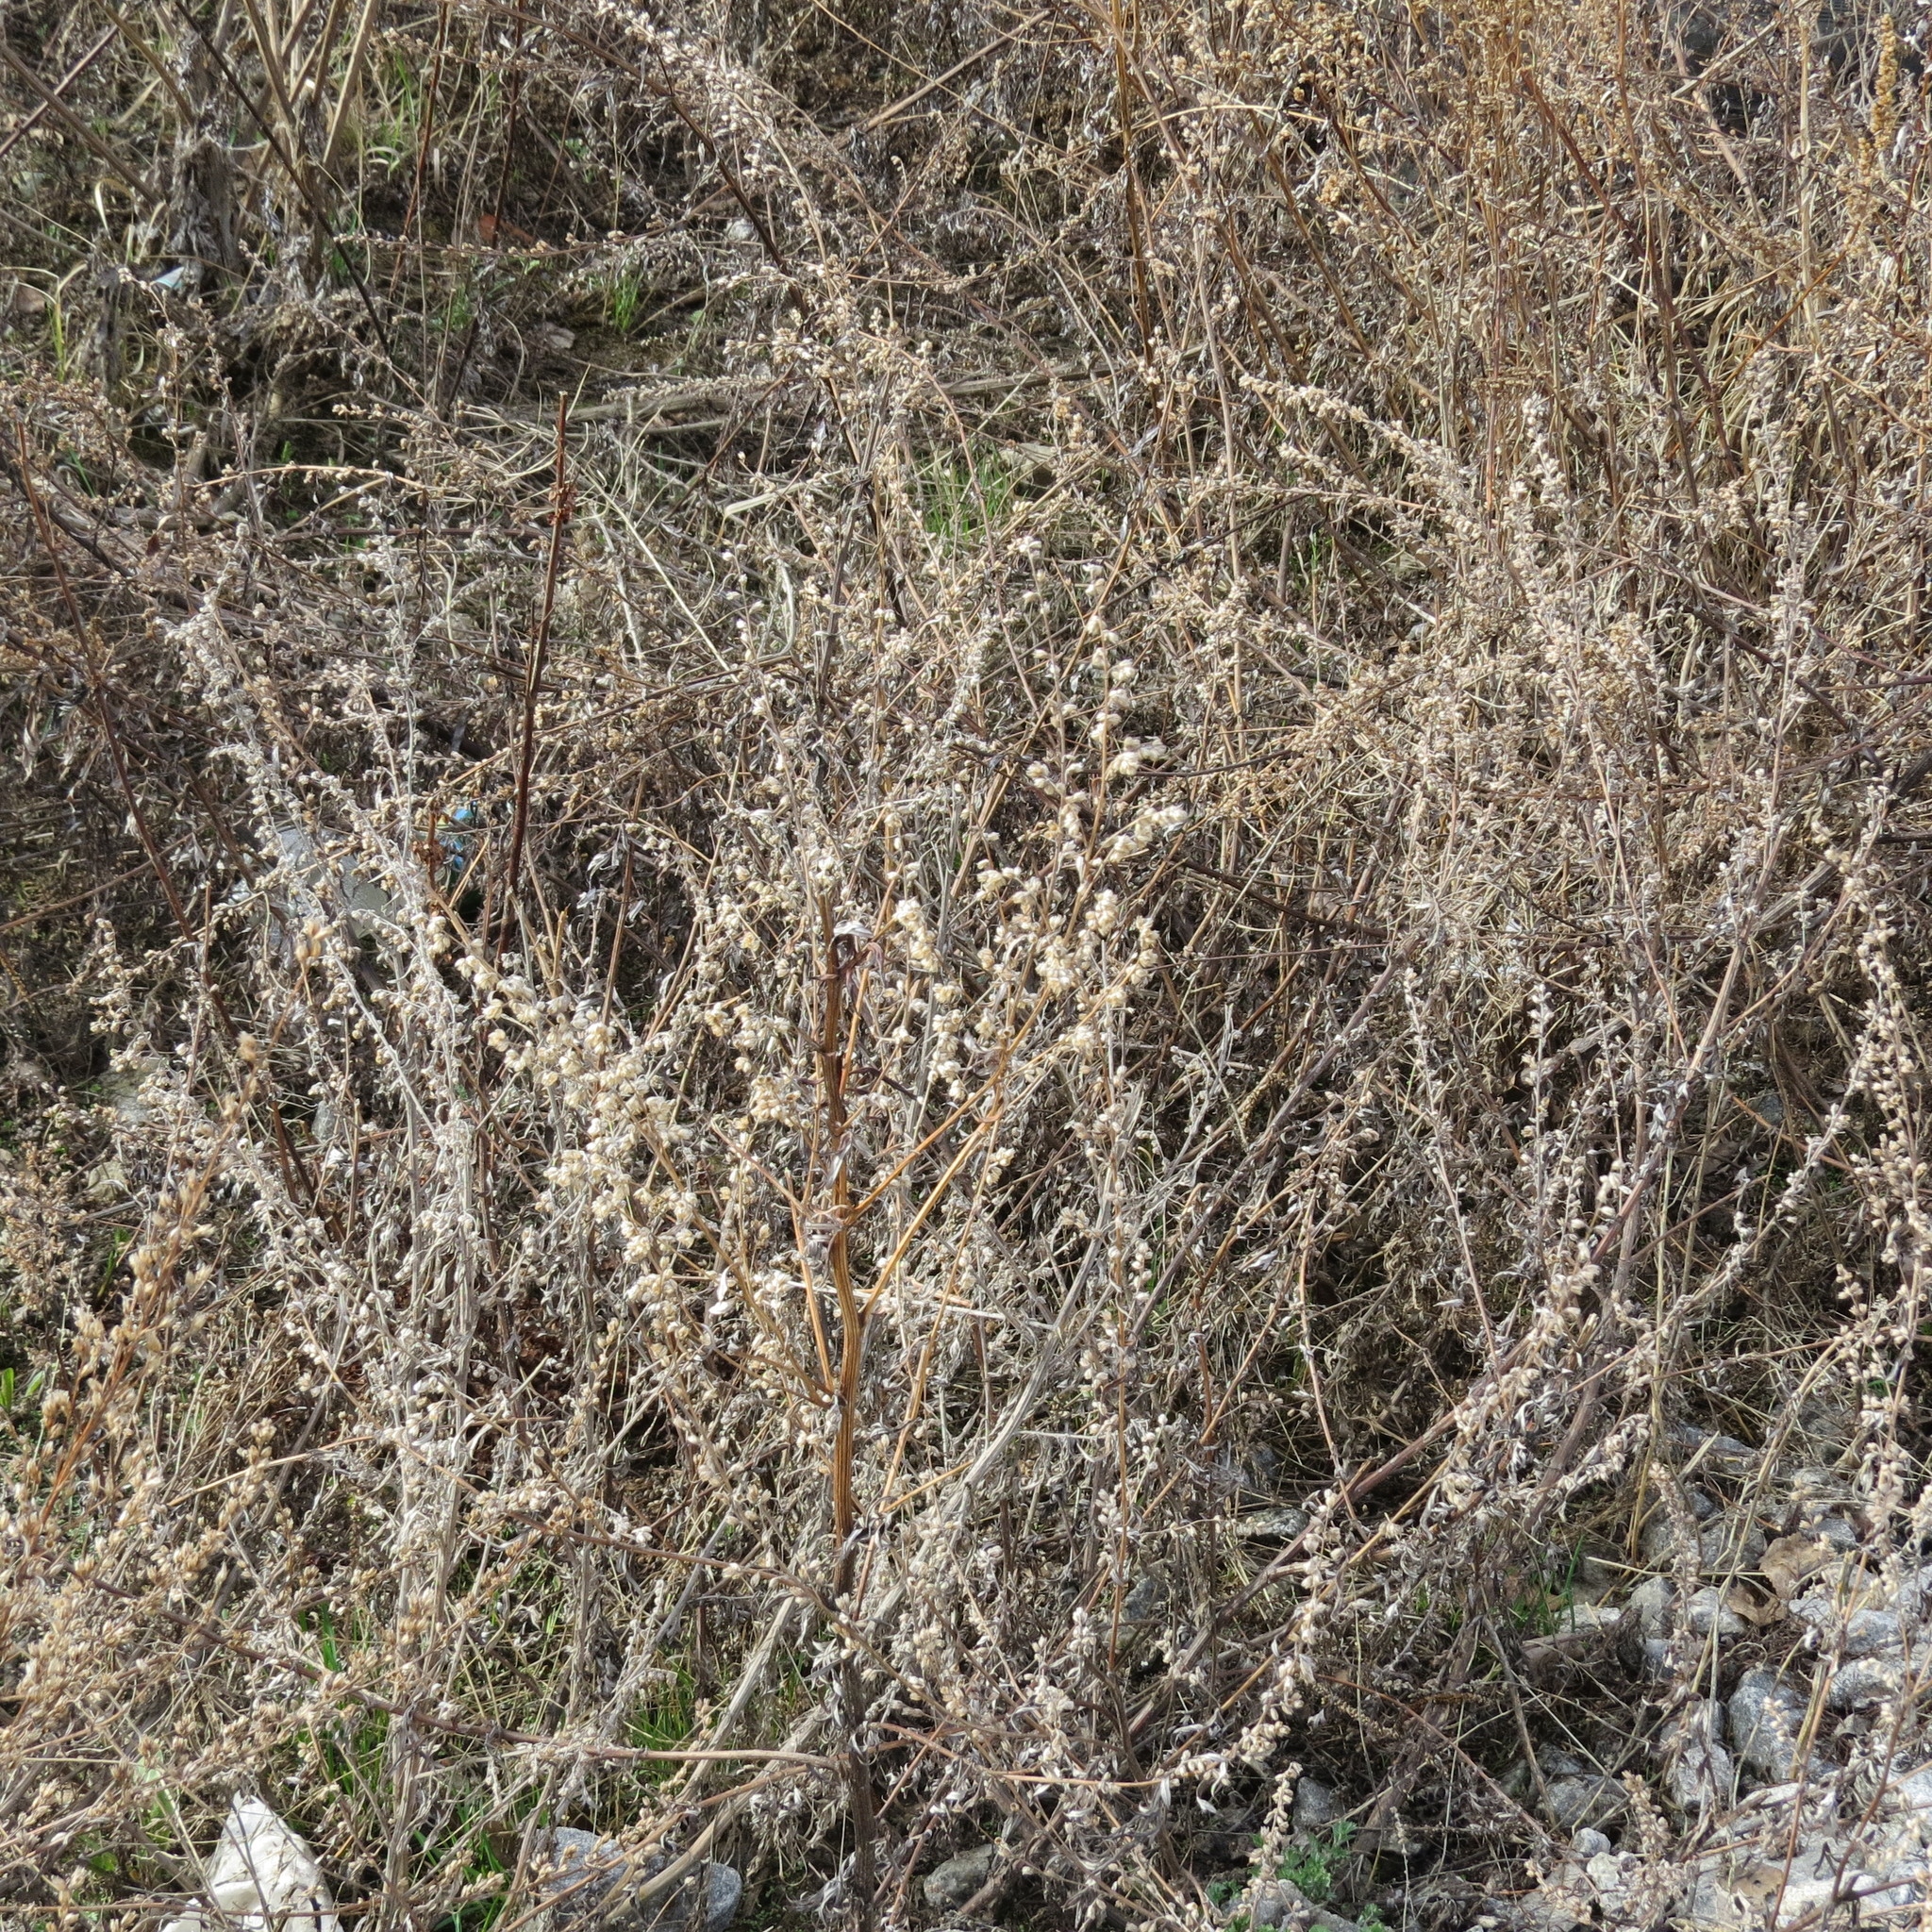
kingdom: Plantae
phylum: Tracheophyta
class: Magnoliopsida
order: Asterales
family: Asteraceae
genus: Artemisia
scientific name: Artemisia vulgaris
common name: Mugwort
